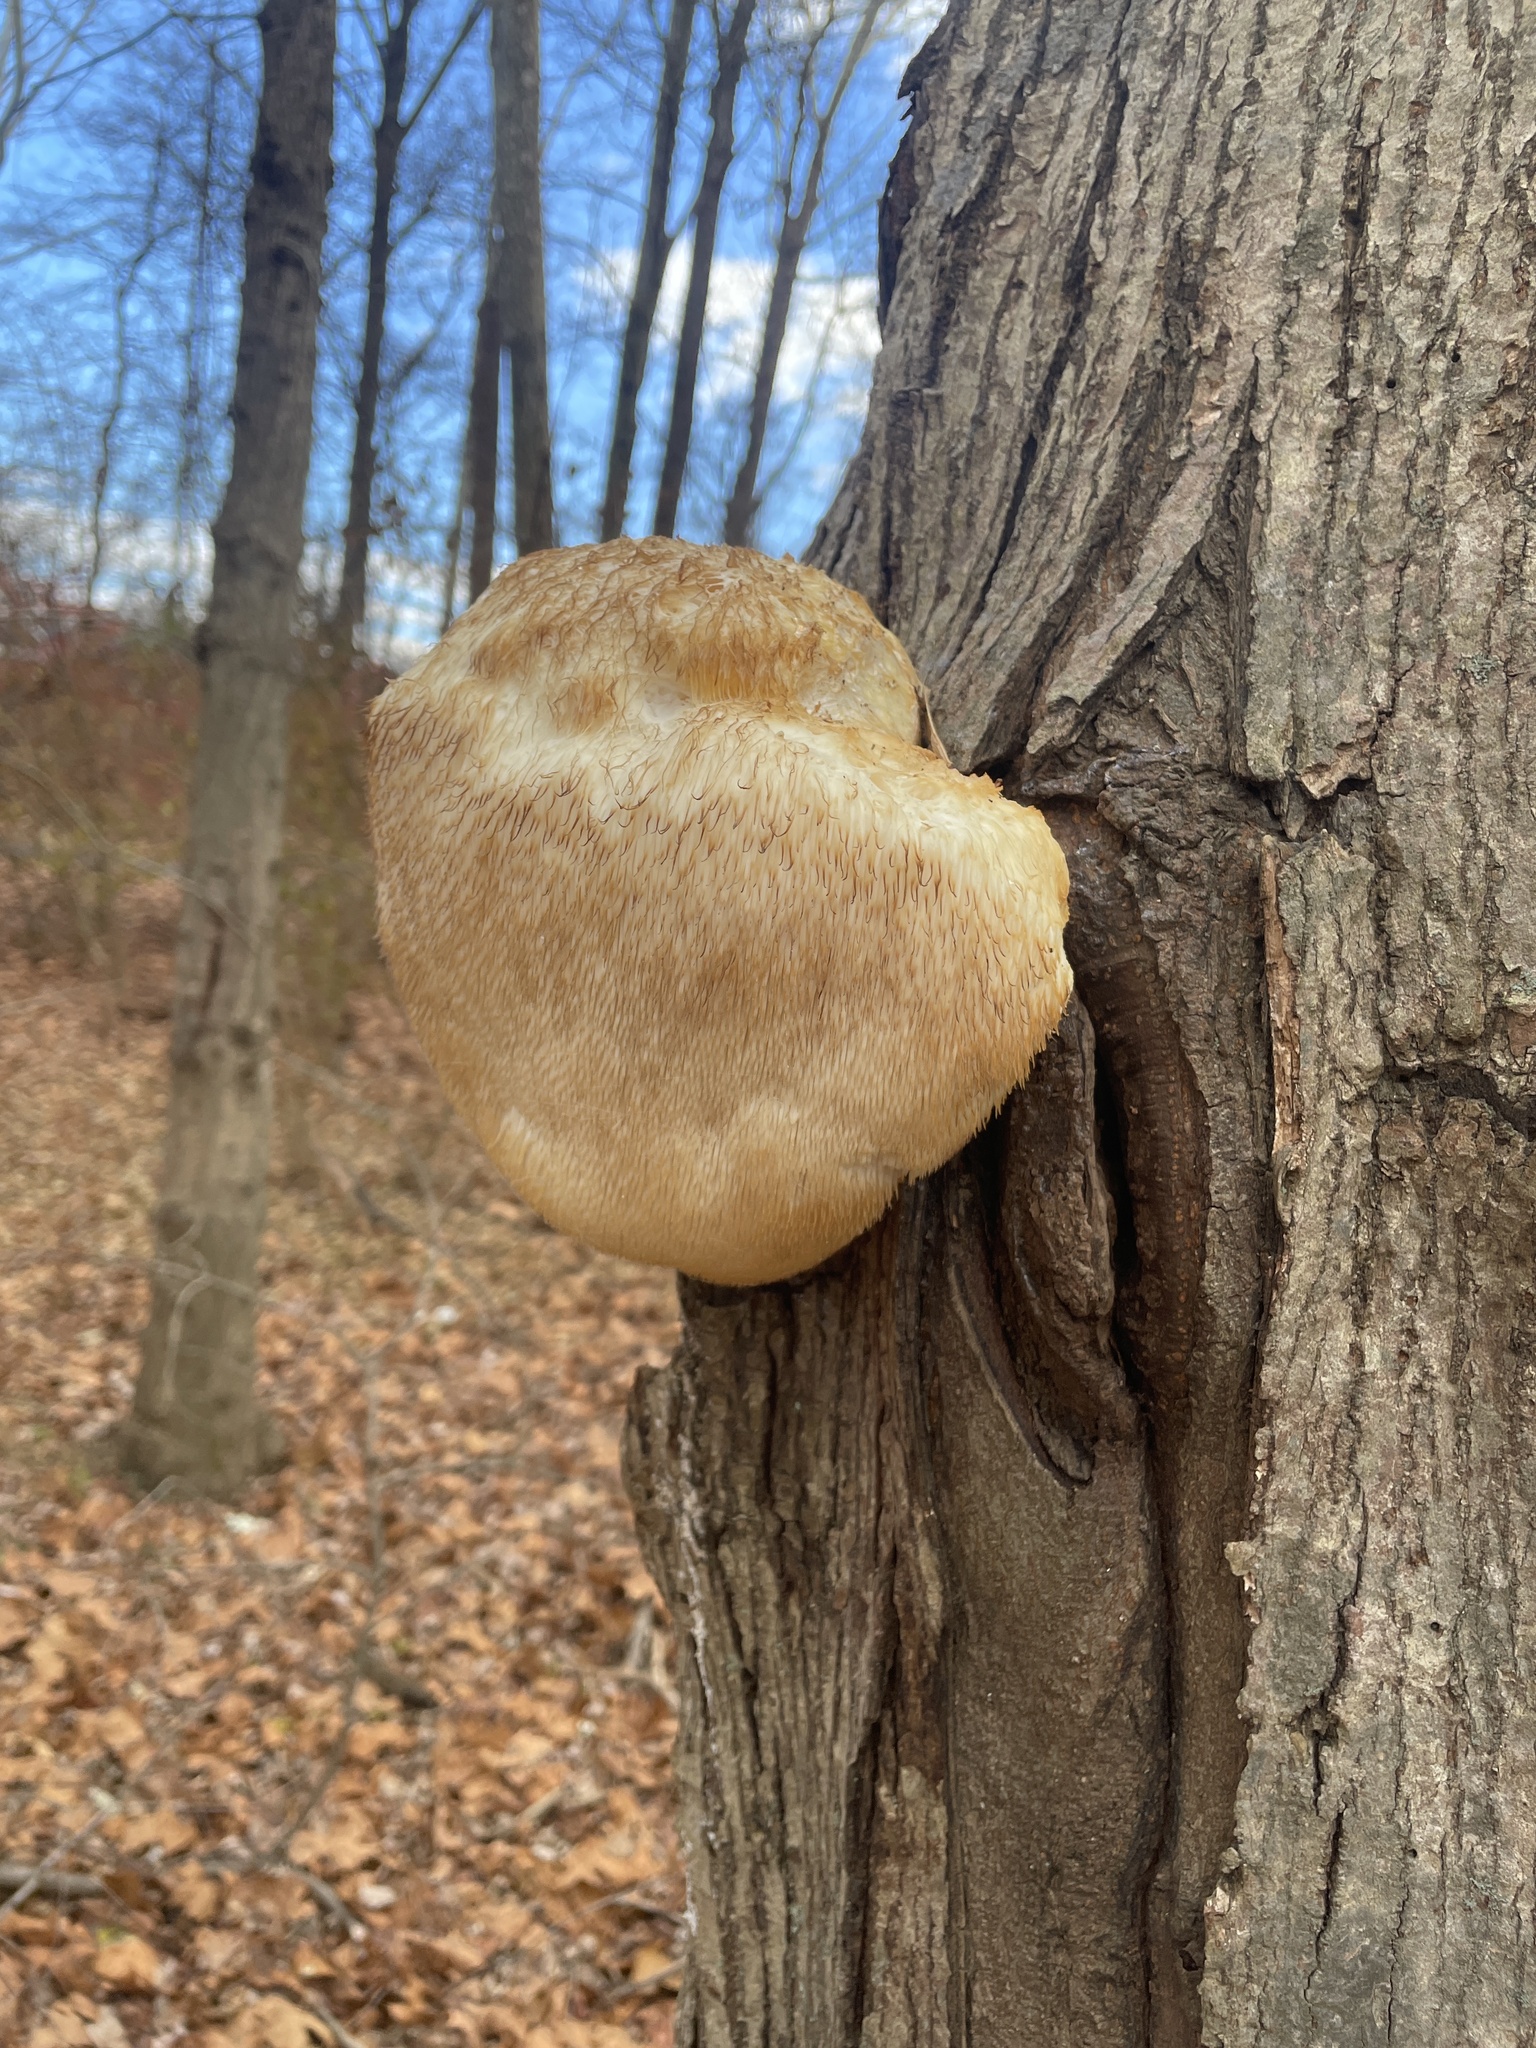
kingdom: Fungi
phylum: Basidiomycota
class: Agaricomycetes
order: Russulales
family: Hericiaceae
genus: Hericium
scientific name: Hericium erinaceus
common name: Bearded tooth
